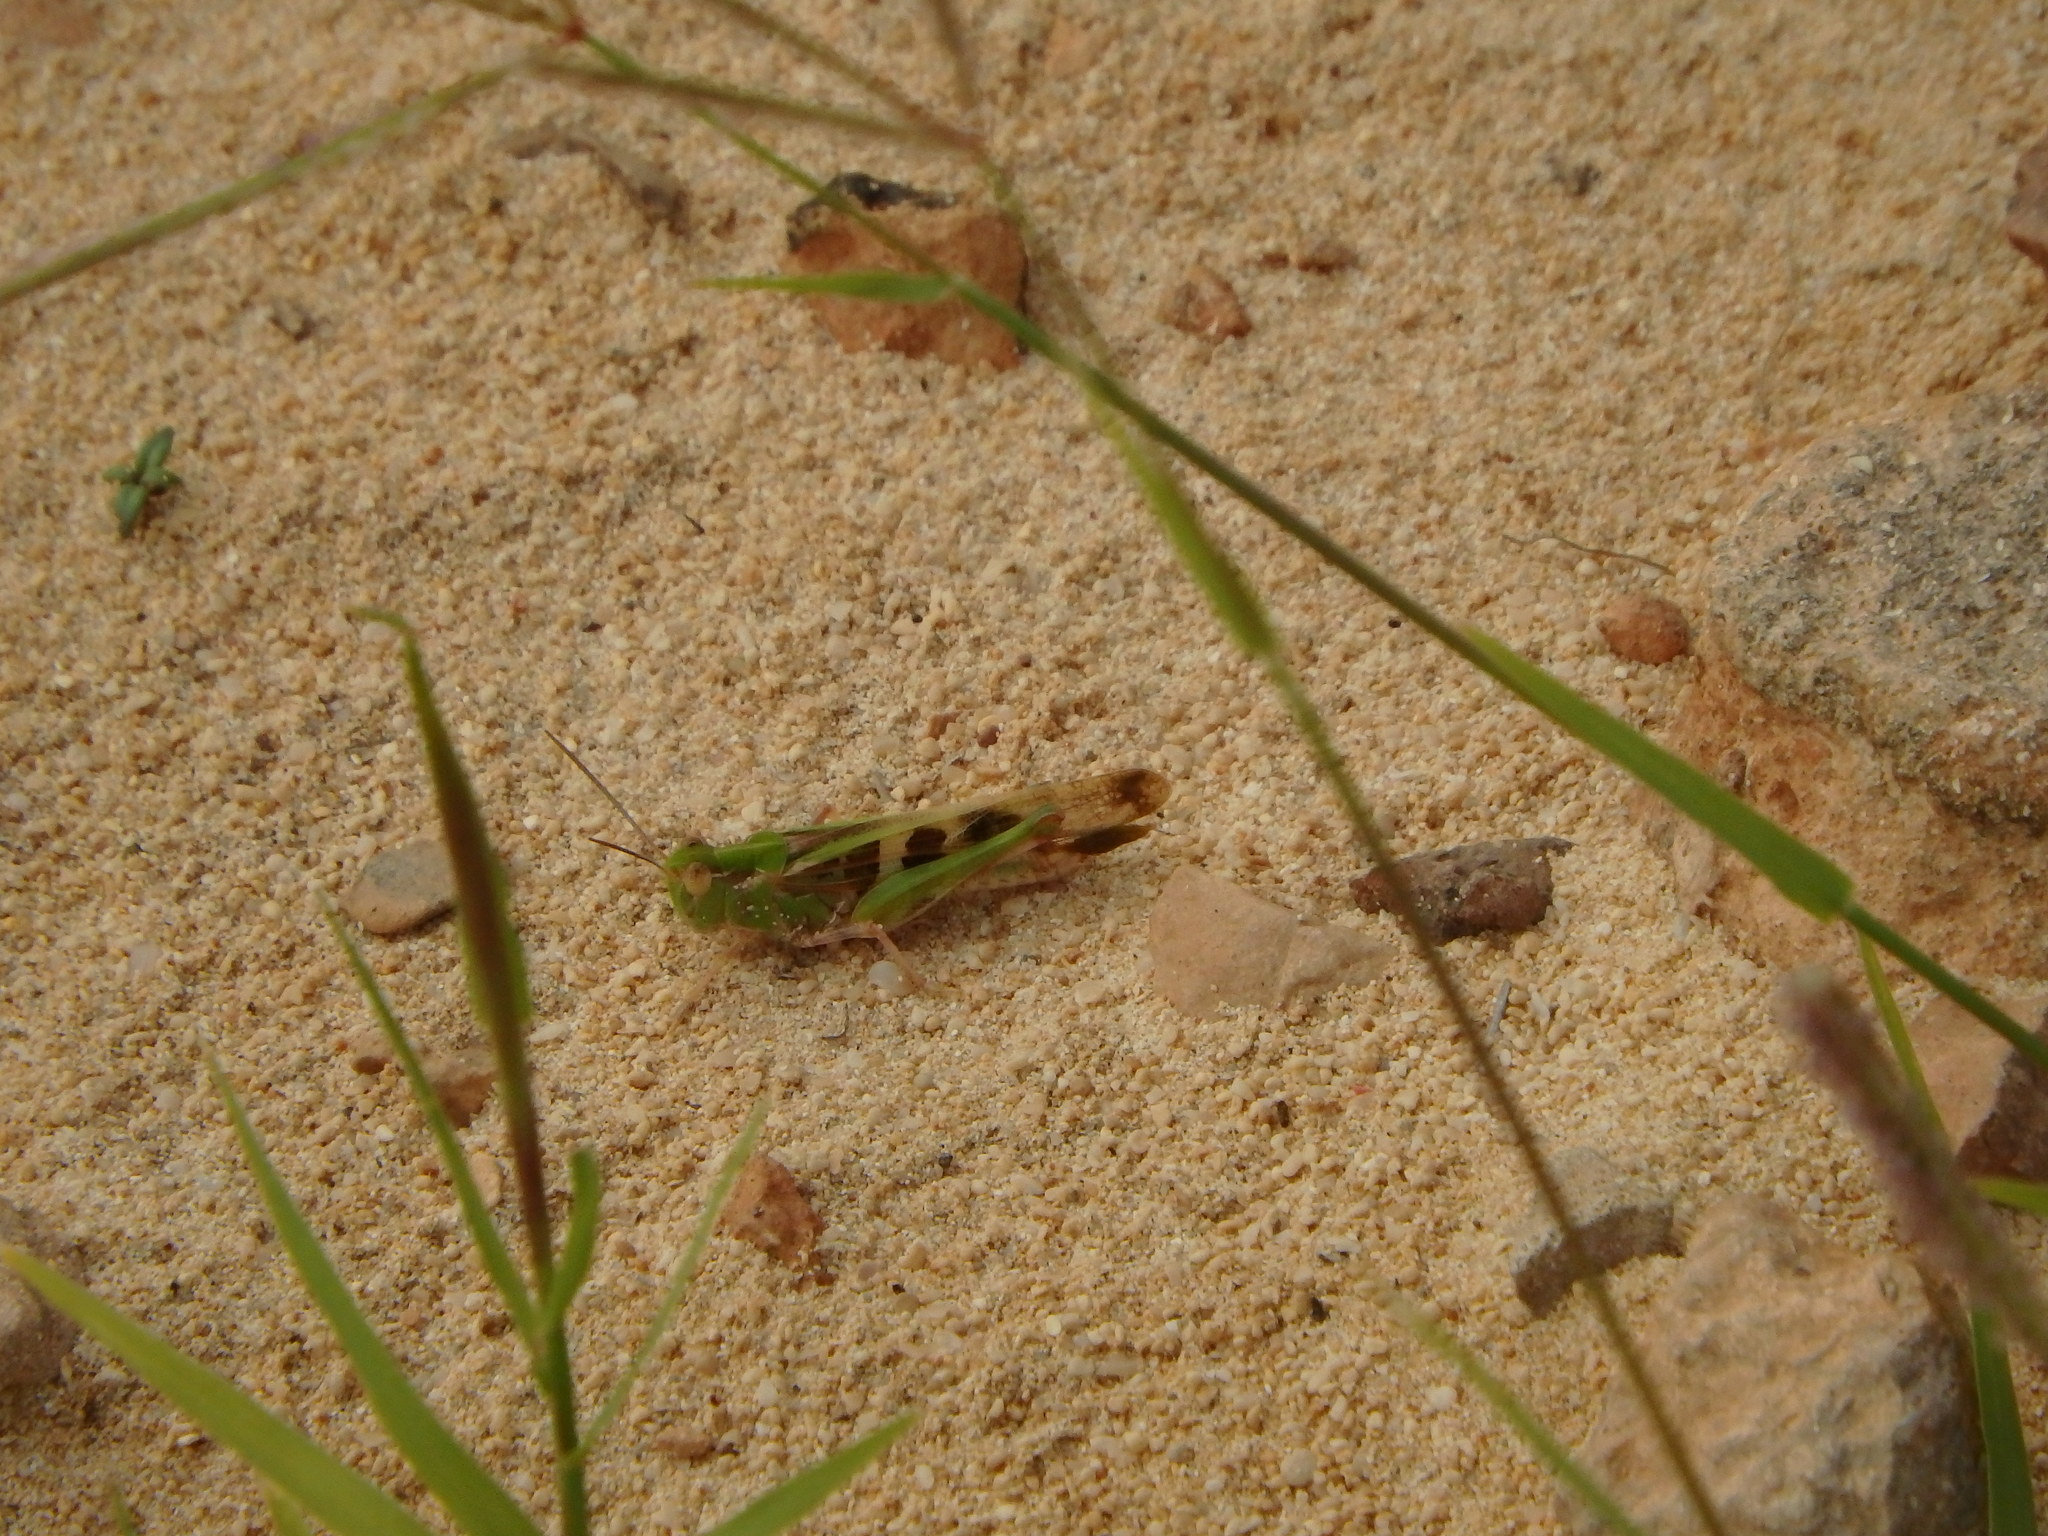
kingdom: Animalia
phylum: Arthropoda
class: Insecta
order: Orthoptera
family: Acrididae
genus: Oedaleus
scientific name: Oedaleus senegalensis
